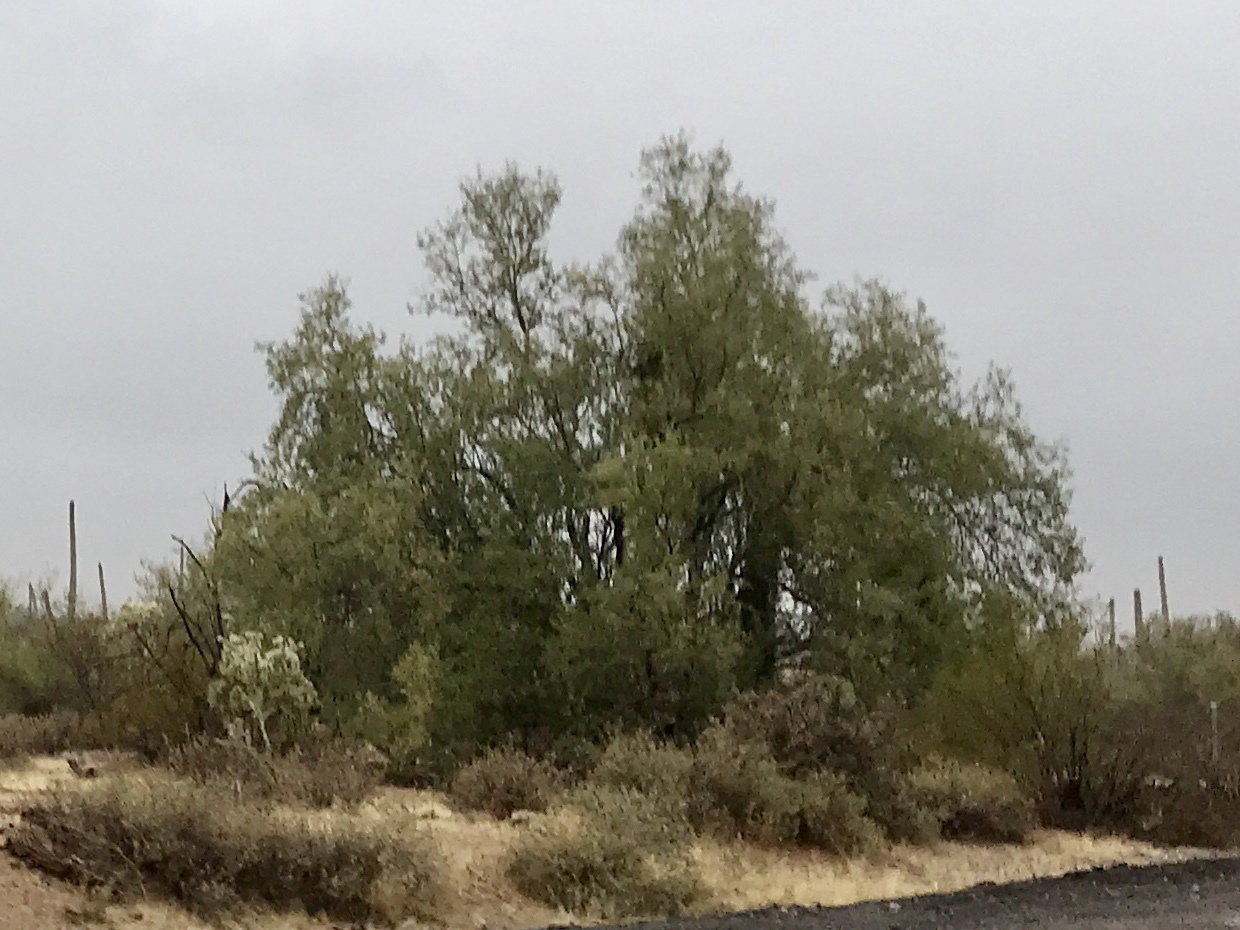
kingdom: Plantae
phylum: Tracheophyta
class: Magnoliopsida
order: Fabales
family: Fabaceae
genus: Olneya
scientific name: Olneya tesota
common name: Desert ironwood
